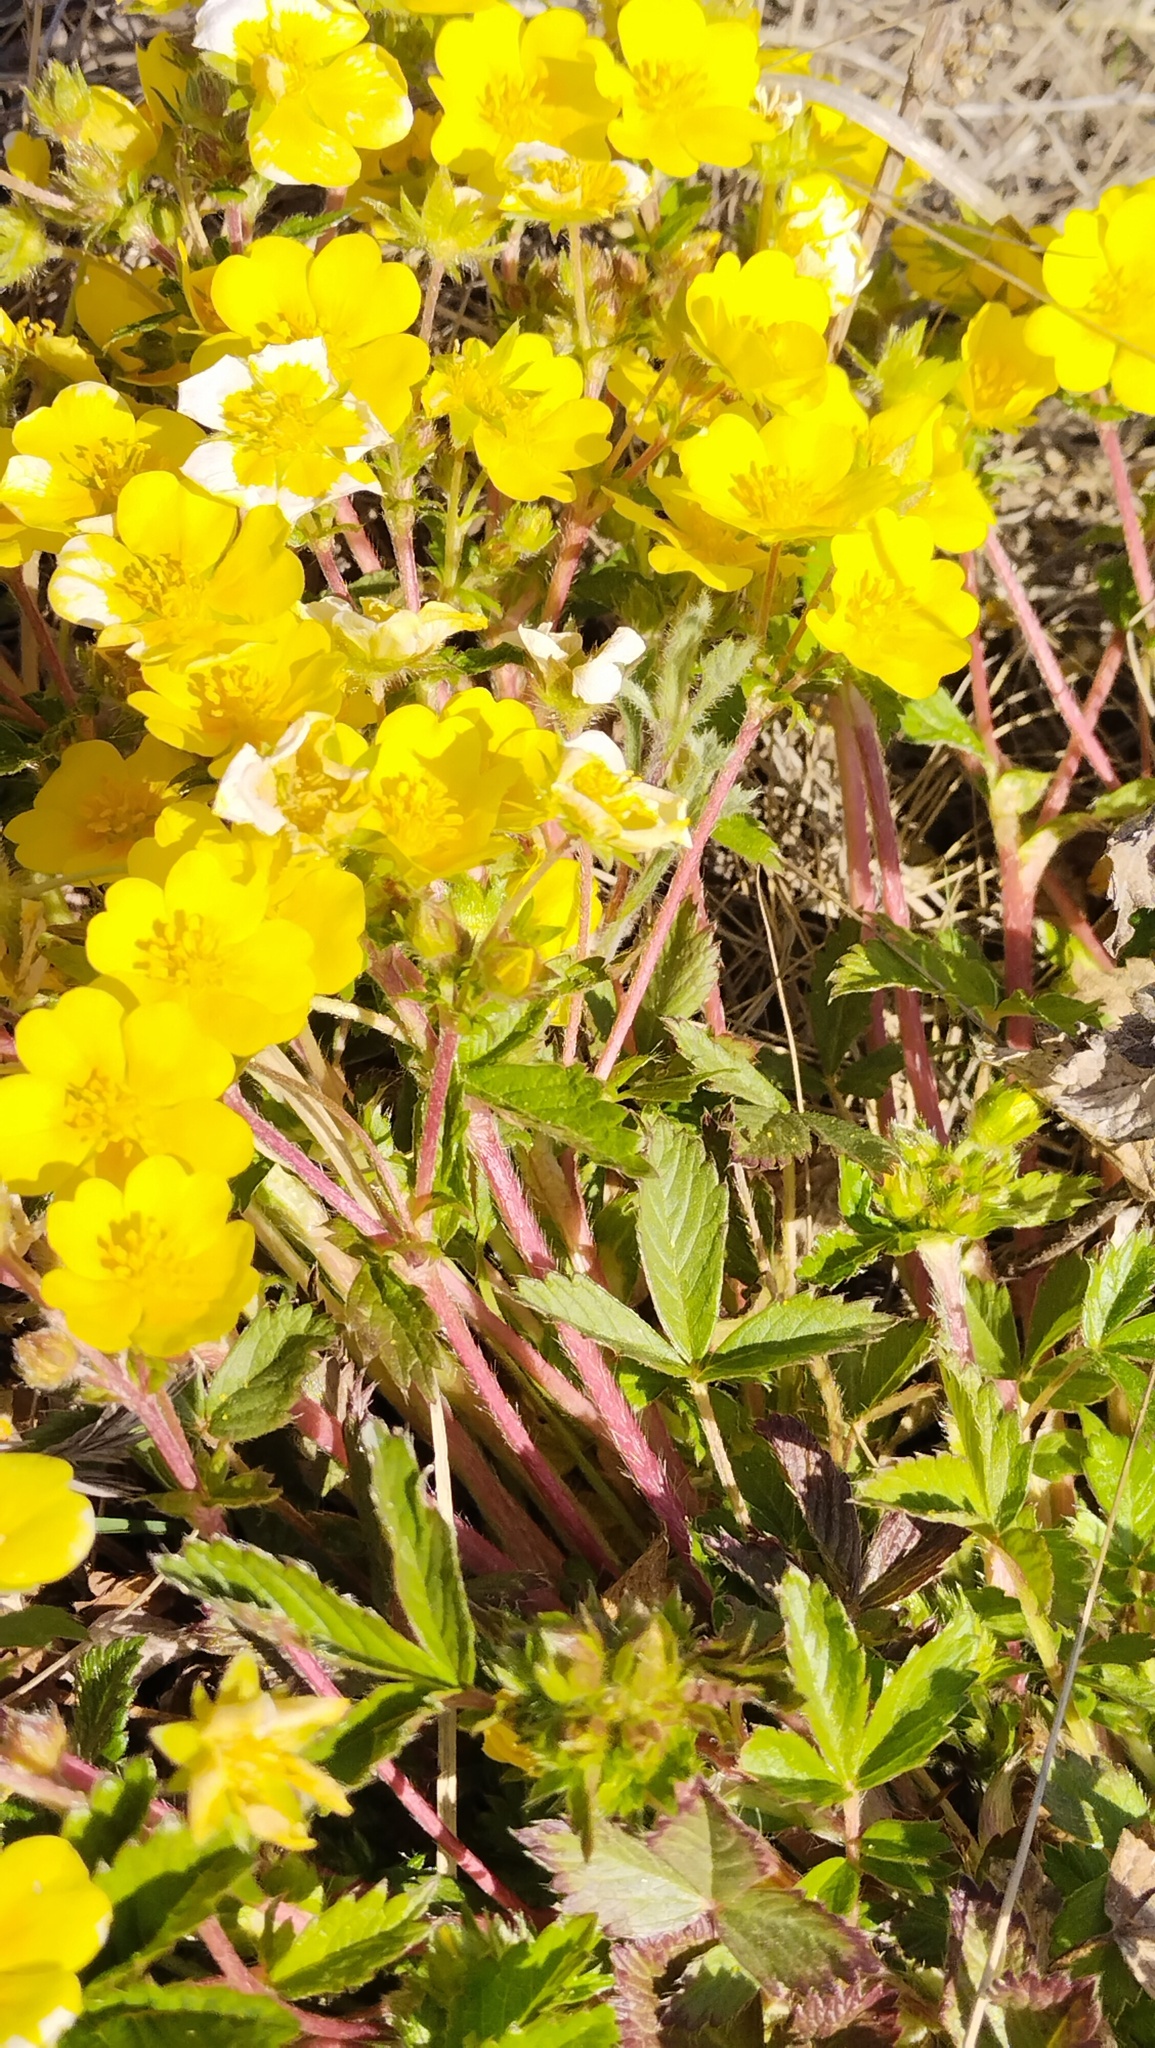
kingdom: Plantae
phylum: Tracheophyta
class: Magnoliopsida
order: Rosales
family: Rosaceae
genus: Potentilla
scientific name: Potentilla fragarioides
